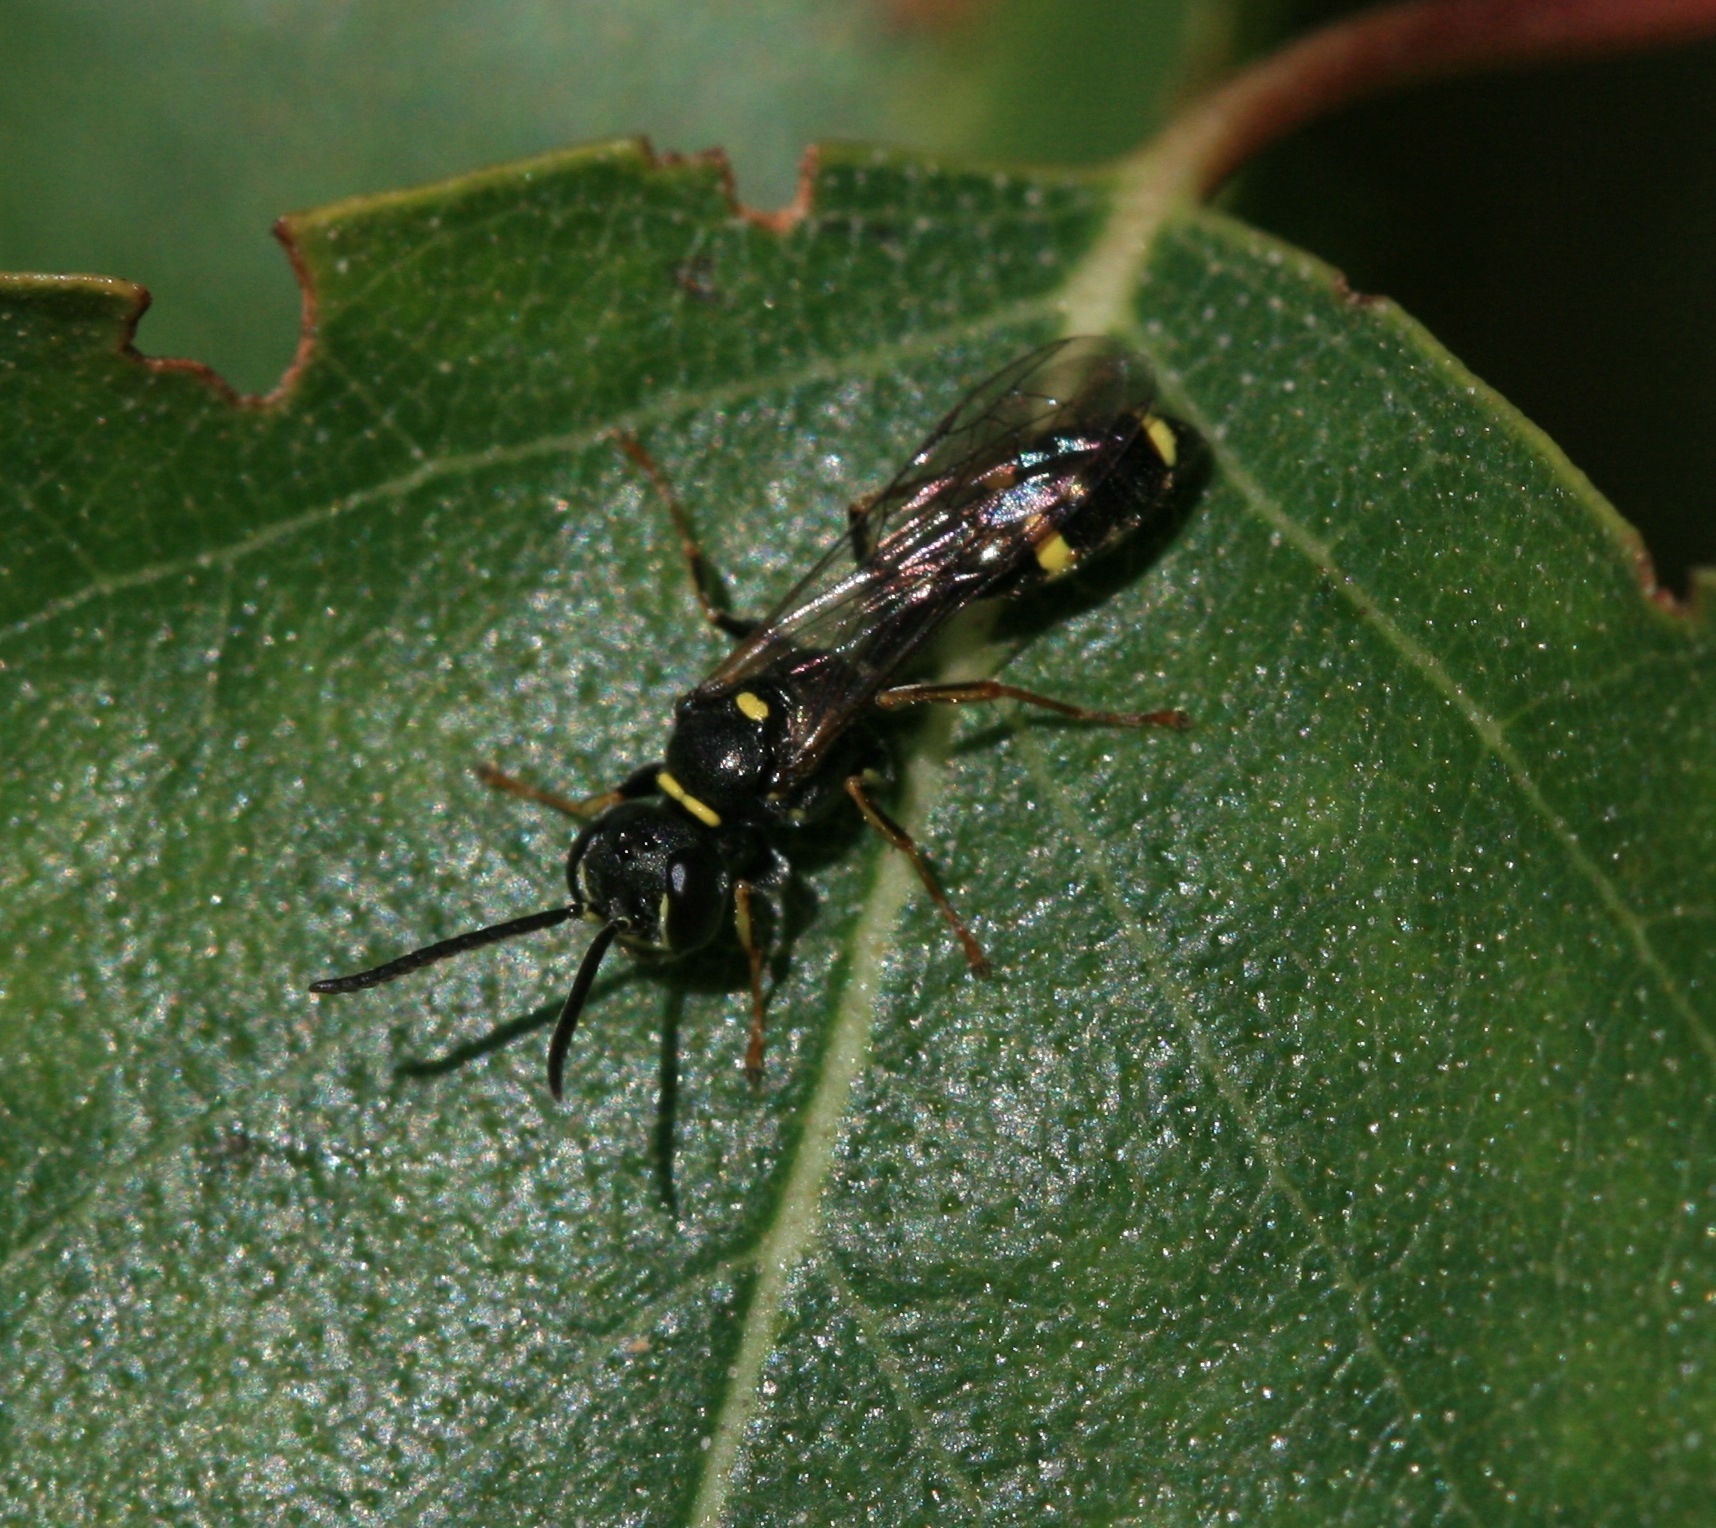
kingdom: Animalia
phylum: Arthropoda
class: Insecta
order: Hymenoptera
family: Crabronidae
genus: Mellinus
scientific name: Mellinus arvensis
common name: Field digger wasp
